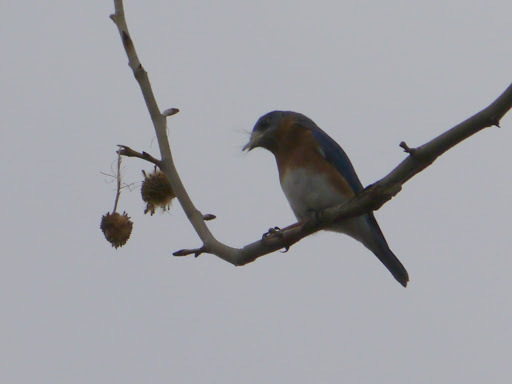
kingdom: Animalia
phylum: Chordata
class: Aves
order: Passeriformes
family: Turdidae
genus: Sialia
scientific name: Sialia sialis
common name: Eastern bluebird
